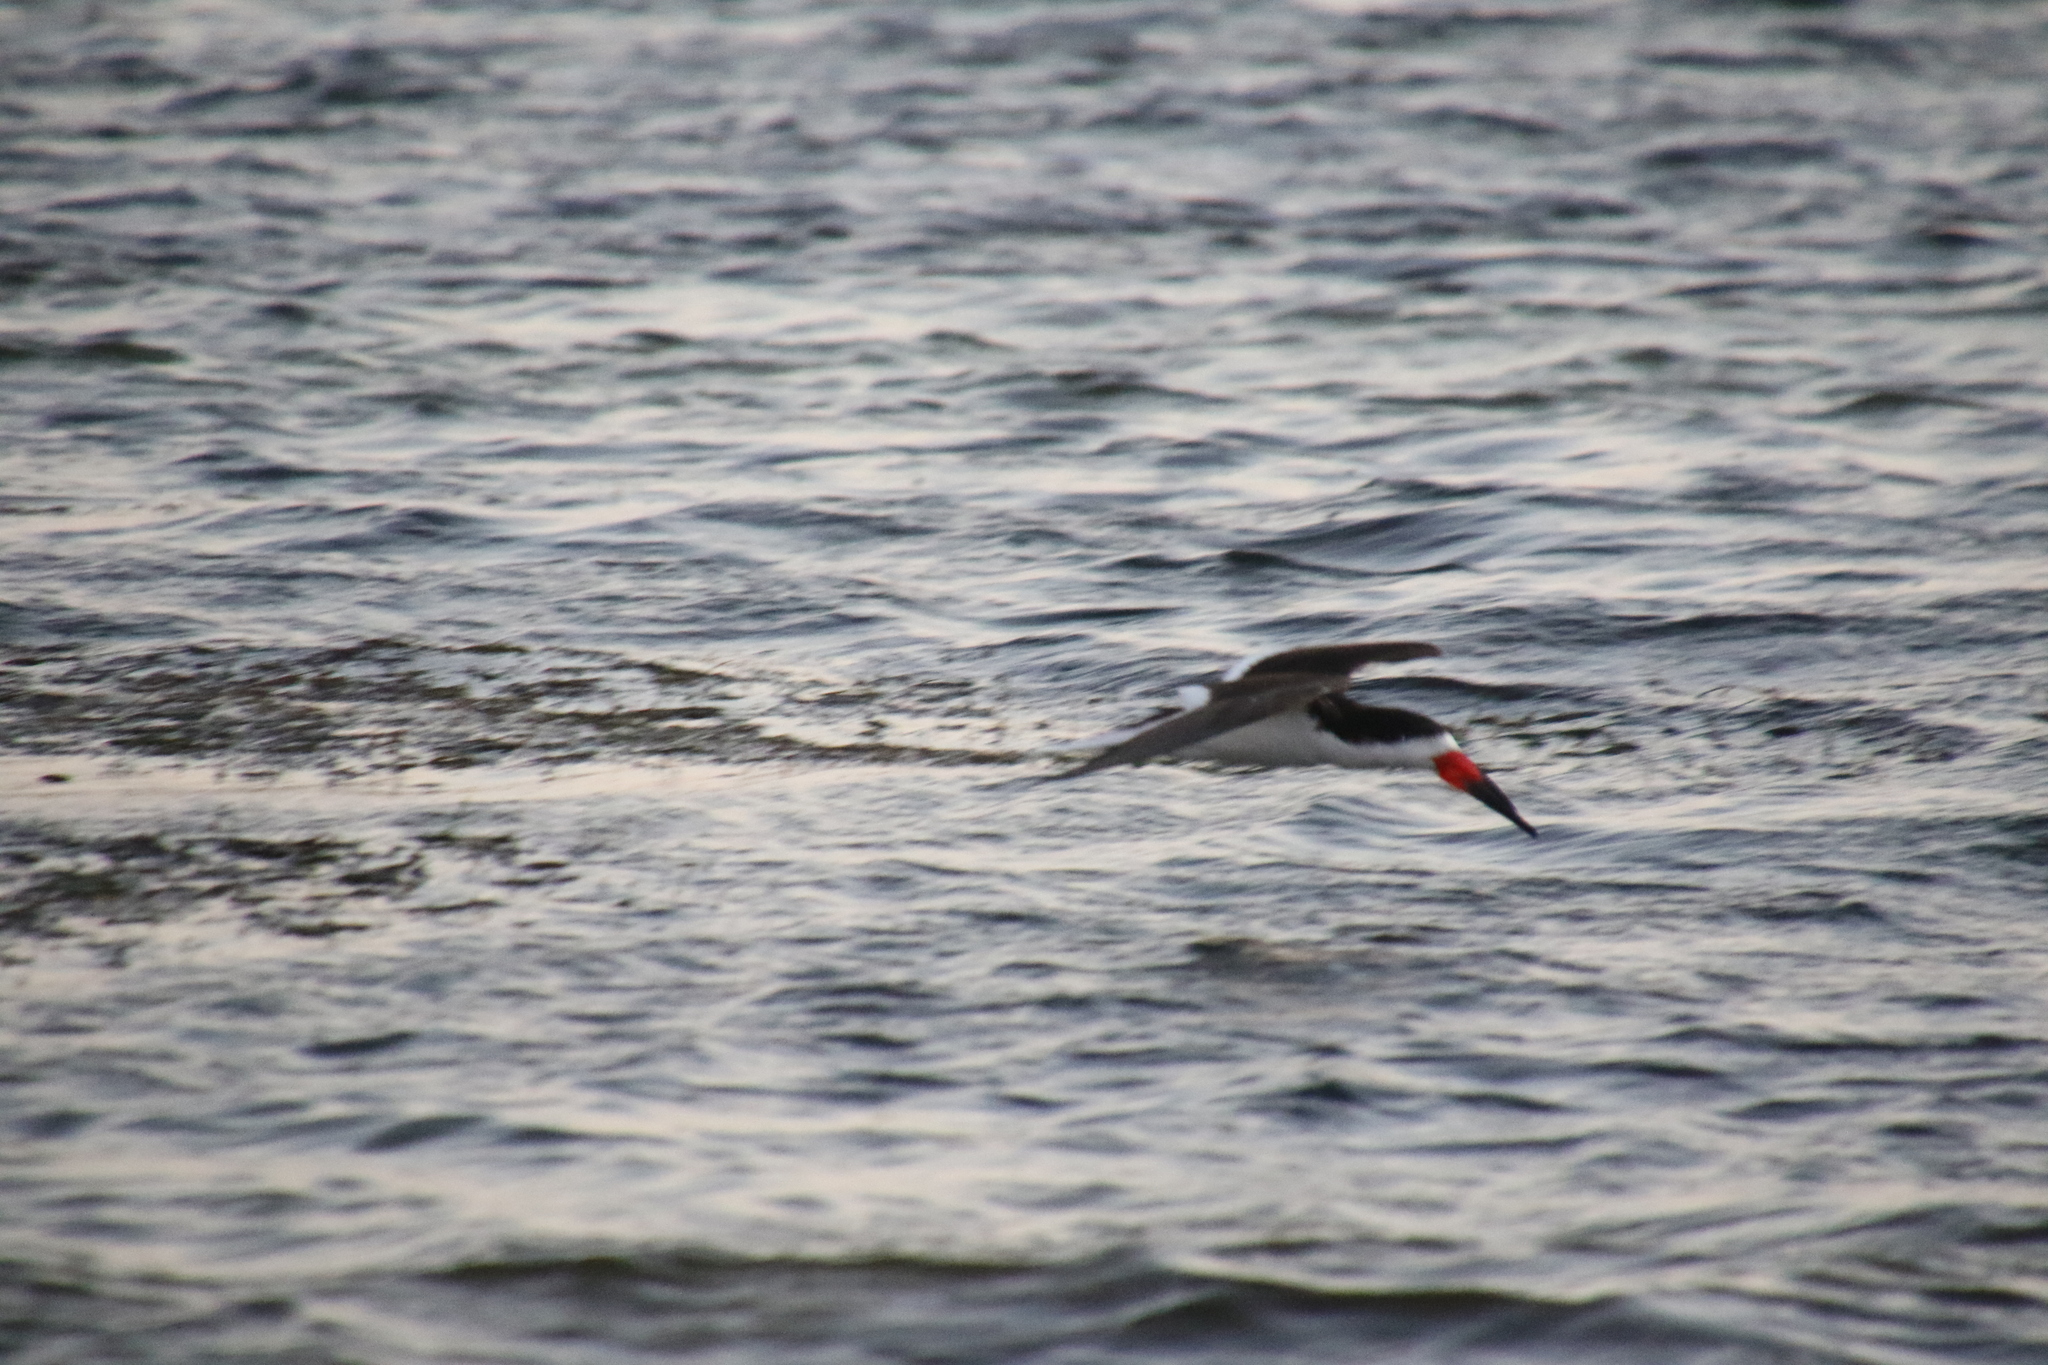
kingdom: Animalia
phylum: Chordata
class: Aves
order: Charadriiformes
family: Laridae
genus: Rynchops
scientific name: Rynchops niger
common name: Black skimmer
